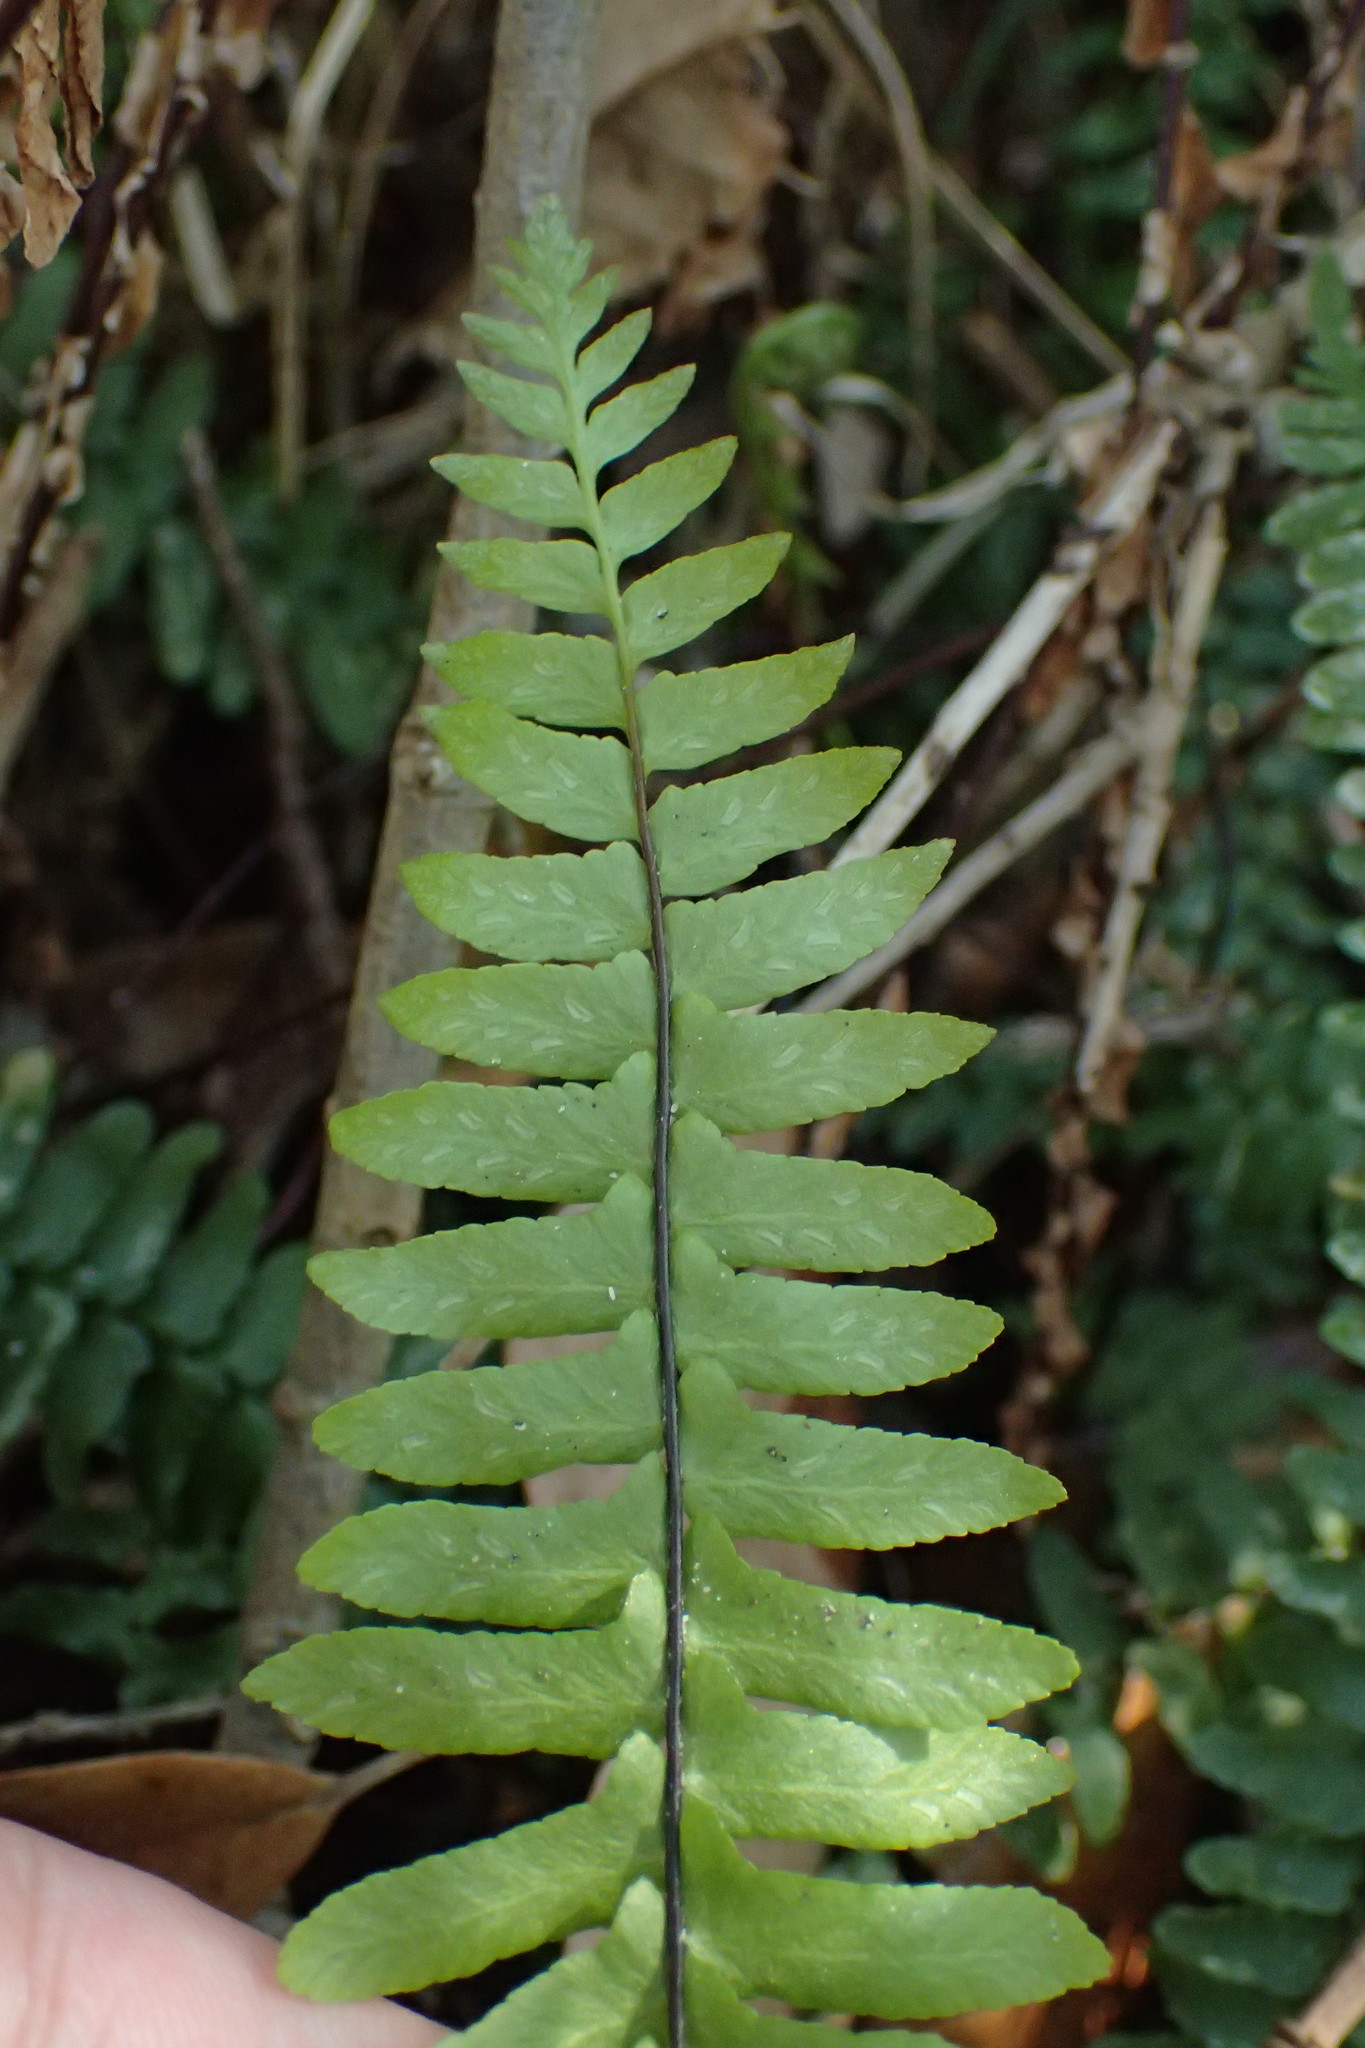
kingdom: Plantae
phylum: Tracheophyta
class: Polypodiopsida
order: Polypodiales
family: Aspleniaceae
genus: Asplenium
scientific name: Asplenium platyneuron
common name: Ebony spleenwort
